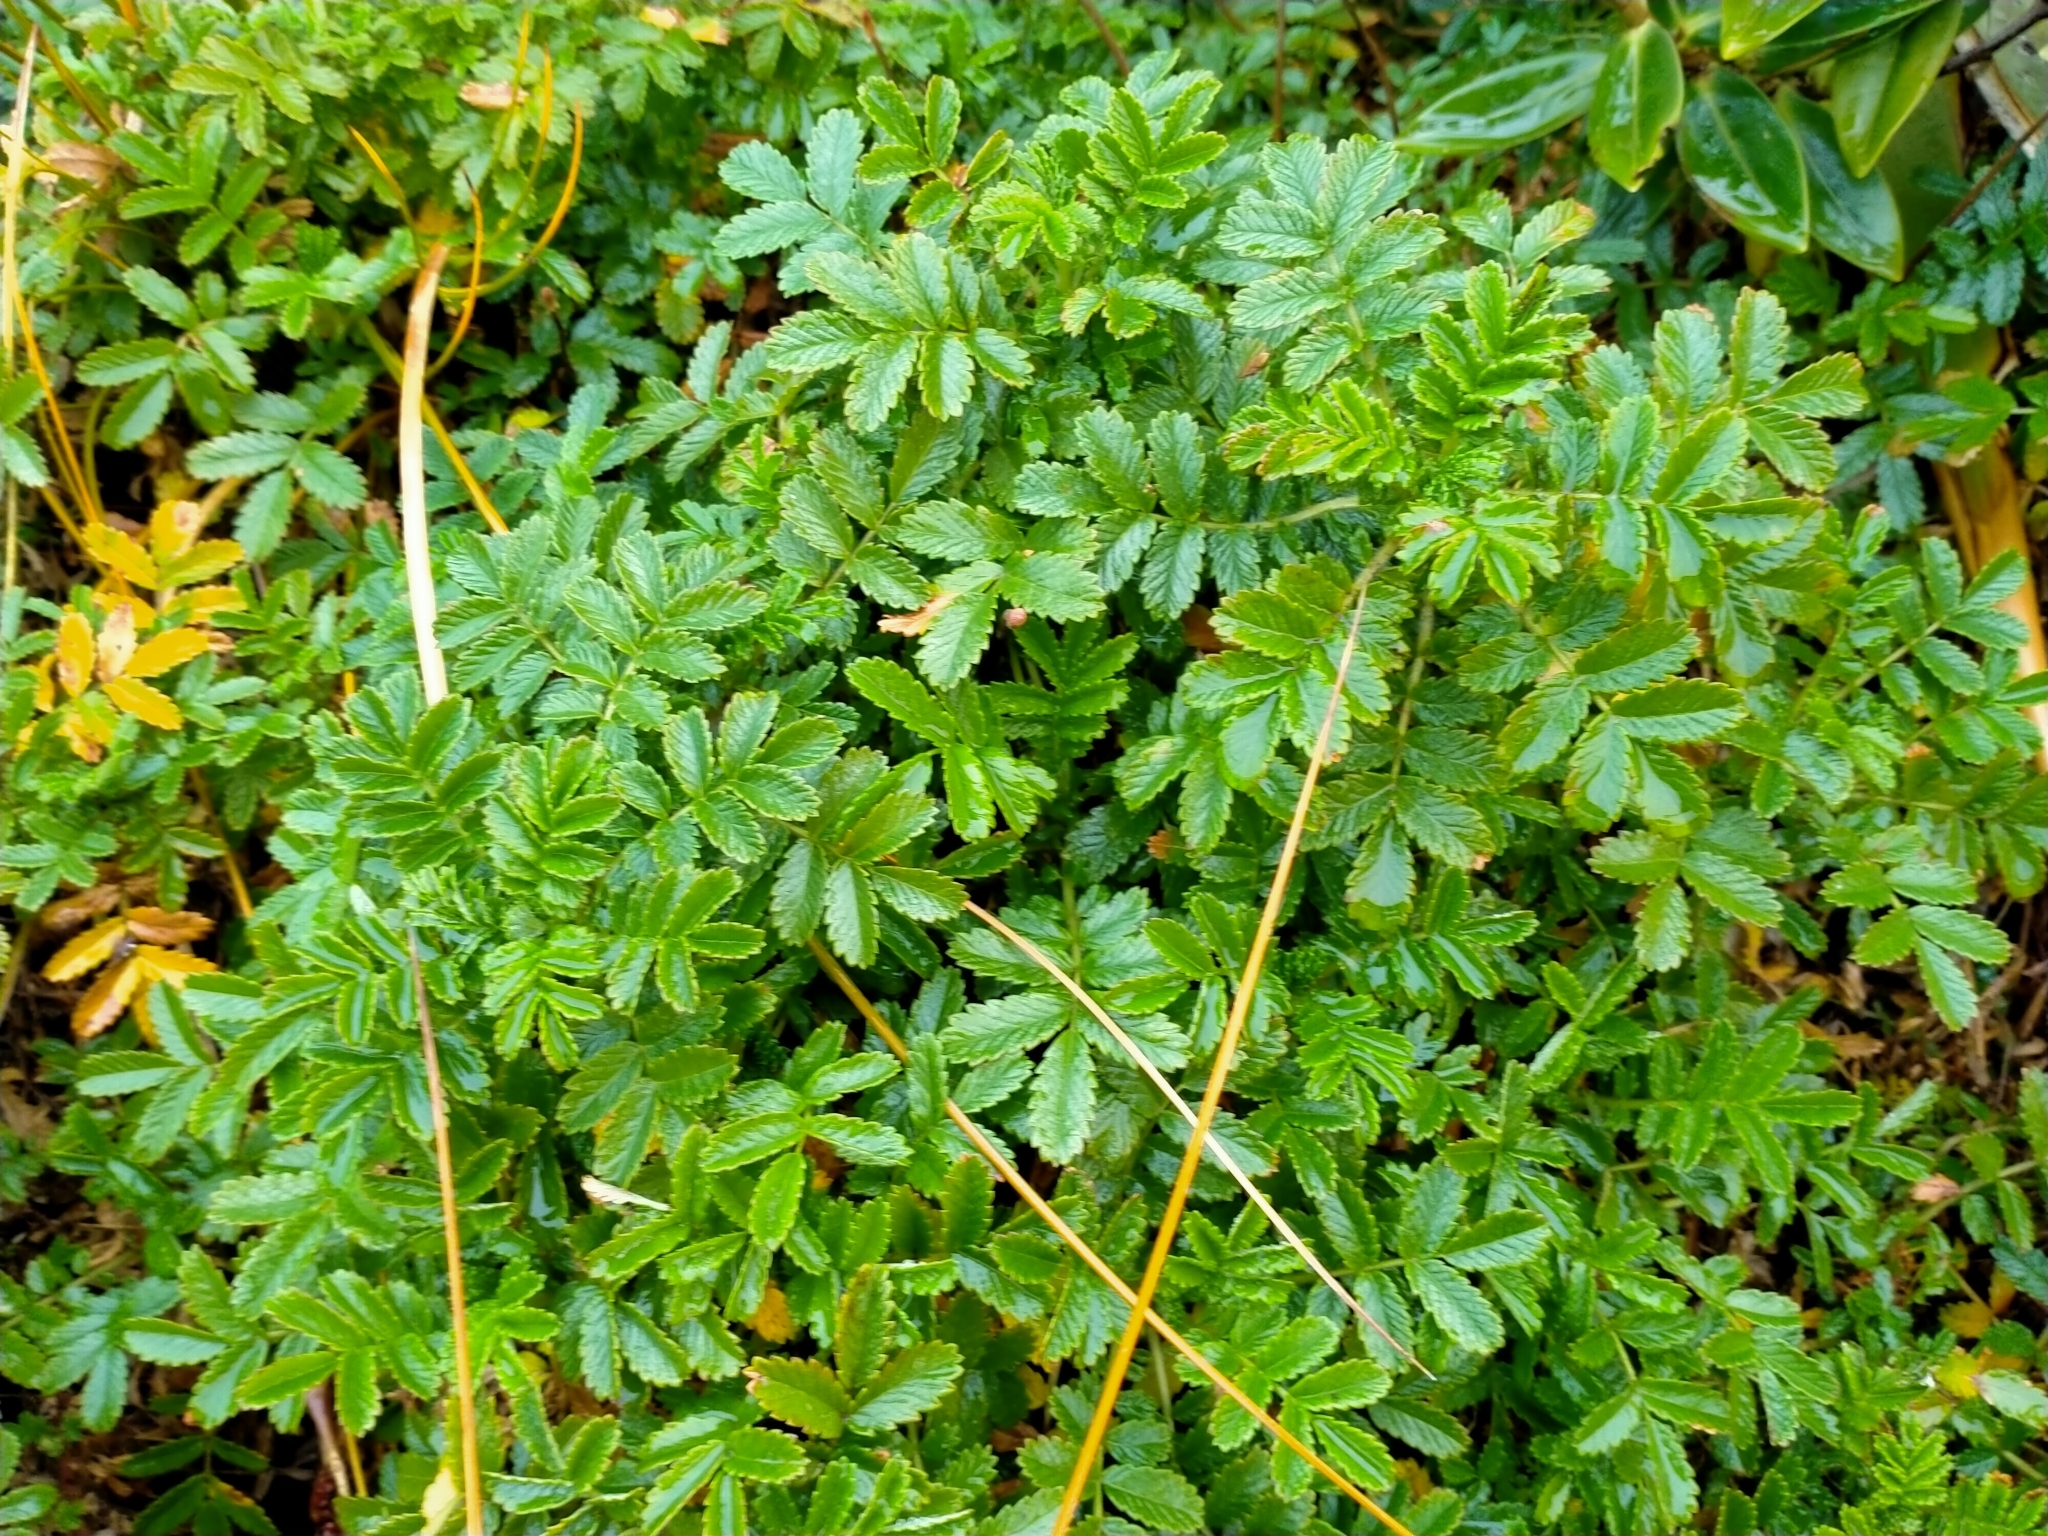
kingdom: Plantae
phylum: Tracheophyta
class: Magnoliopsida
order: Rosales
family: Rosaceae
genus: Acaena
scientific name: Acaena pallida
